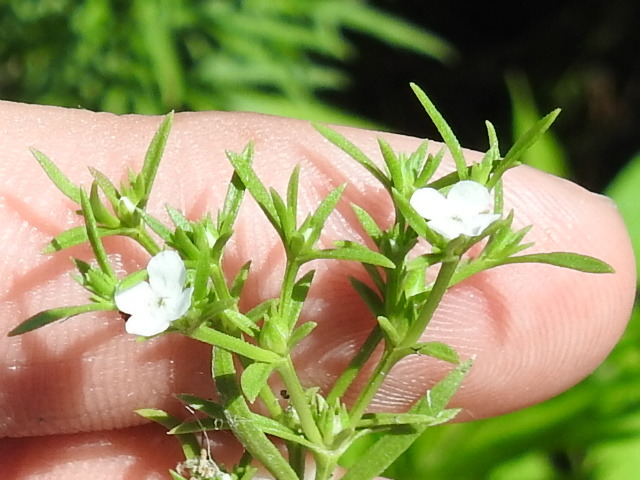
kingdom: Plantae
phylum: Tracheophyta
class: Magnoliopsida
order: Lamiales
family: Tetrachondraceae
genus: Polypremum
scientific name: Polypremum procumbens
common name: Juniper-leaf
